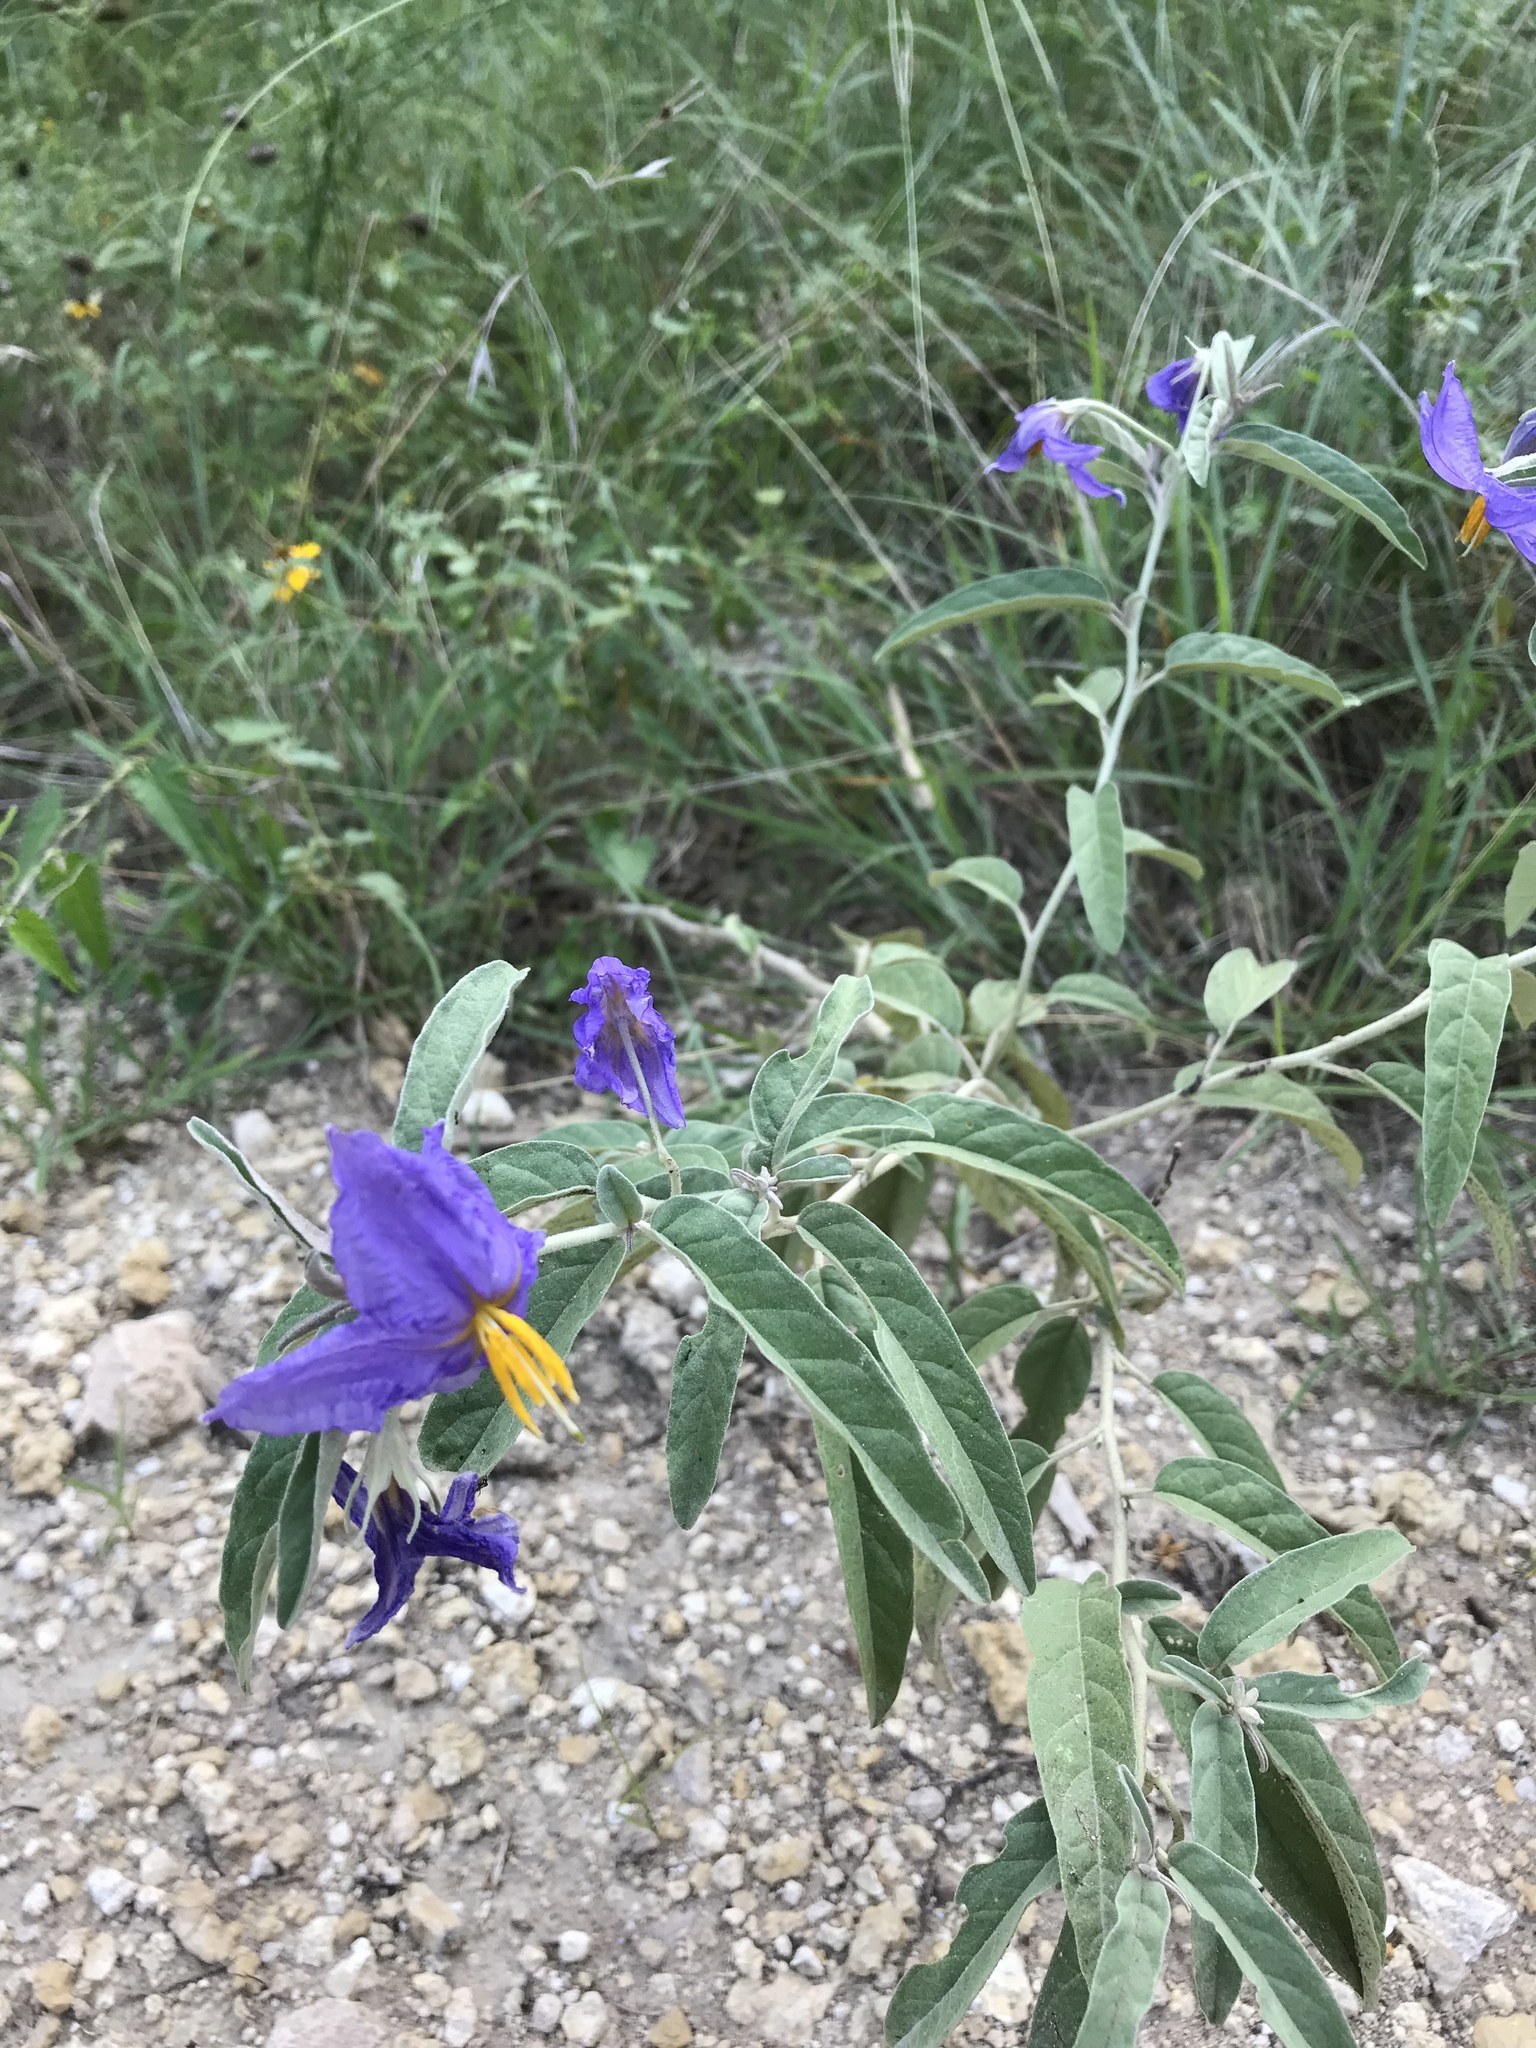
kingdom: Plantae
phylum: Tracheophyta
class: Magnoliopsida
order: Solanales
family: Solanaceae
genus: Solanum
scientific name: Solanum elaeagnifolium
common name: Silverleaf nightshade
